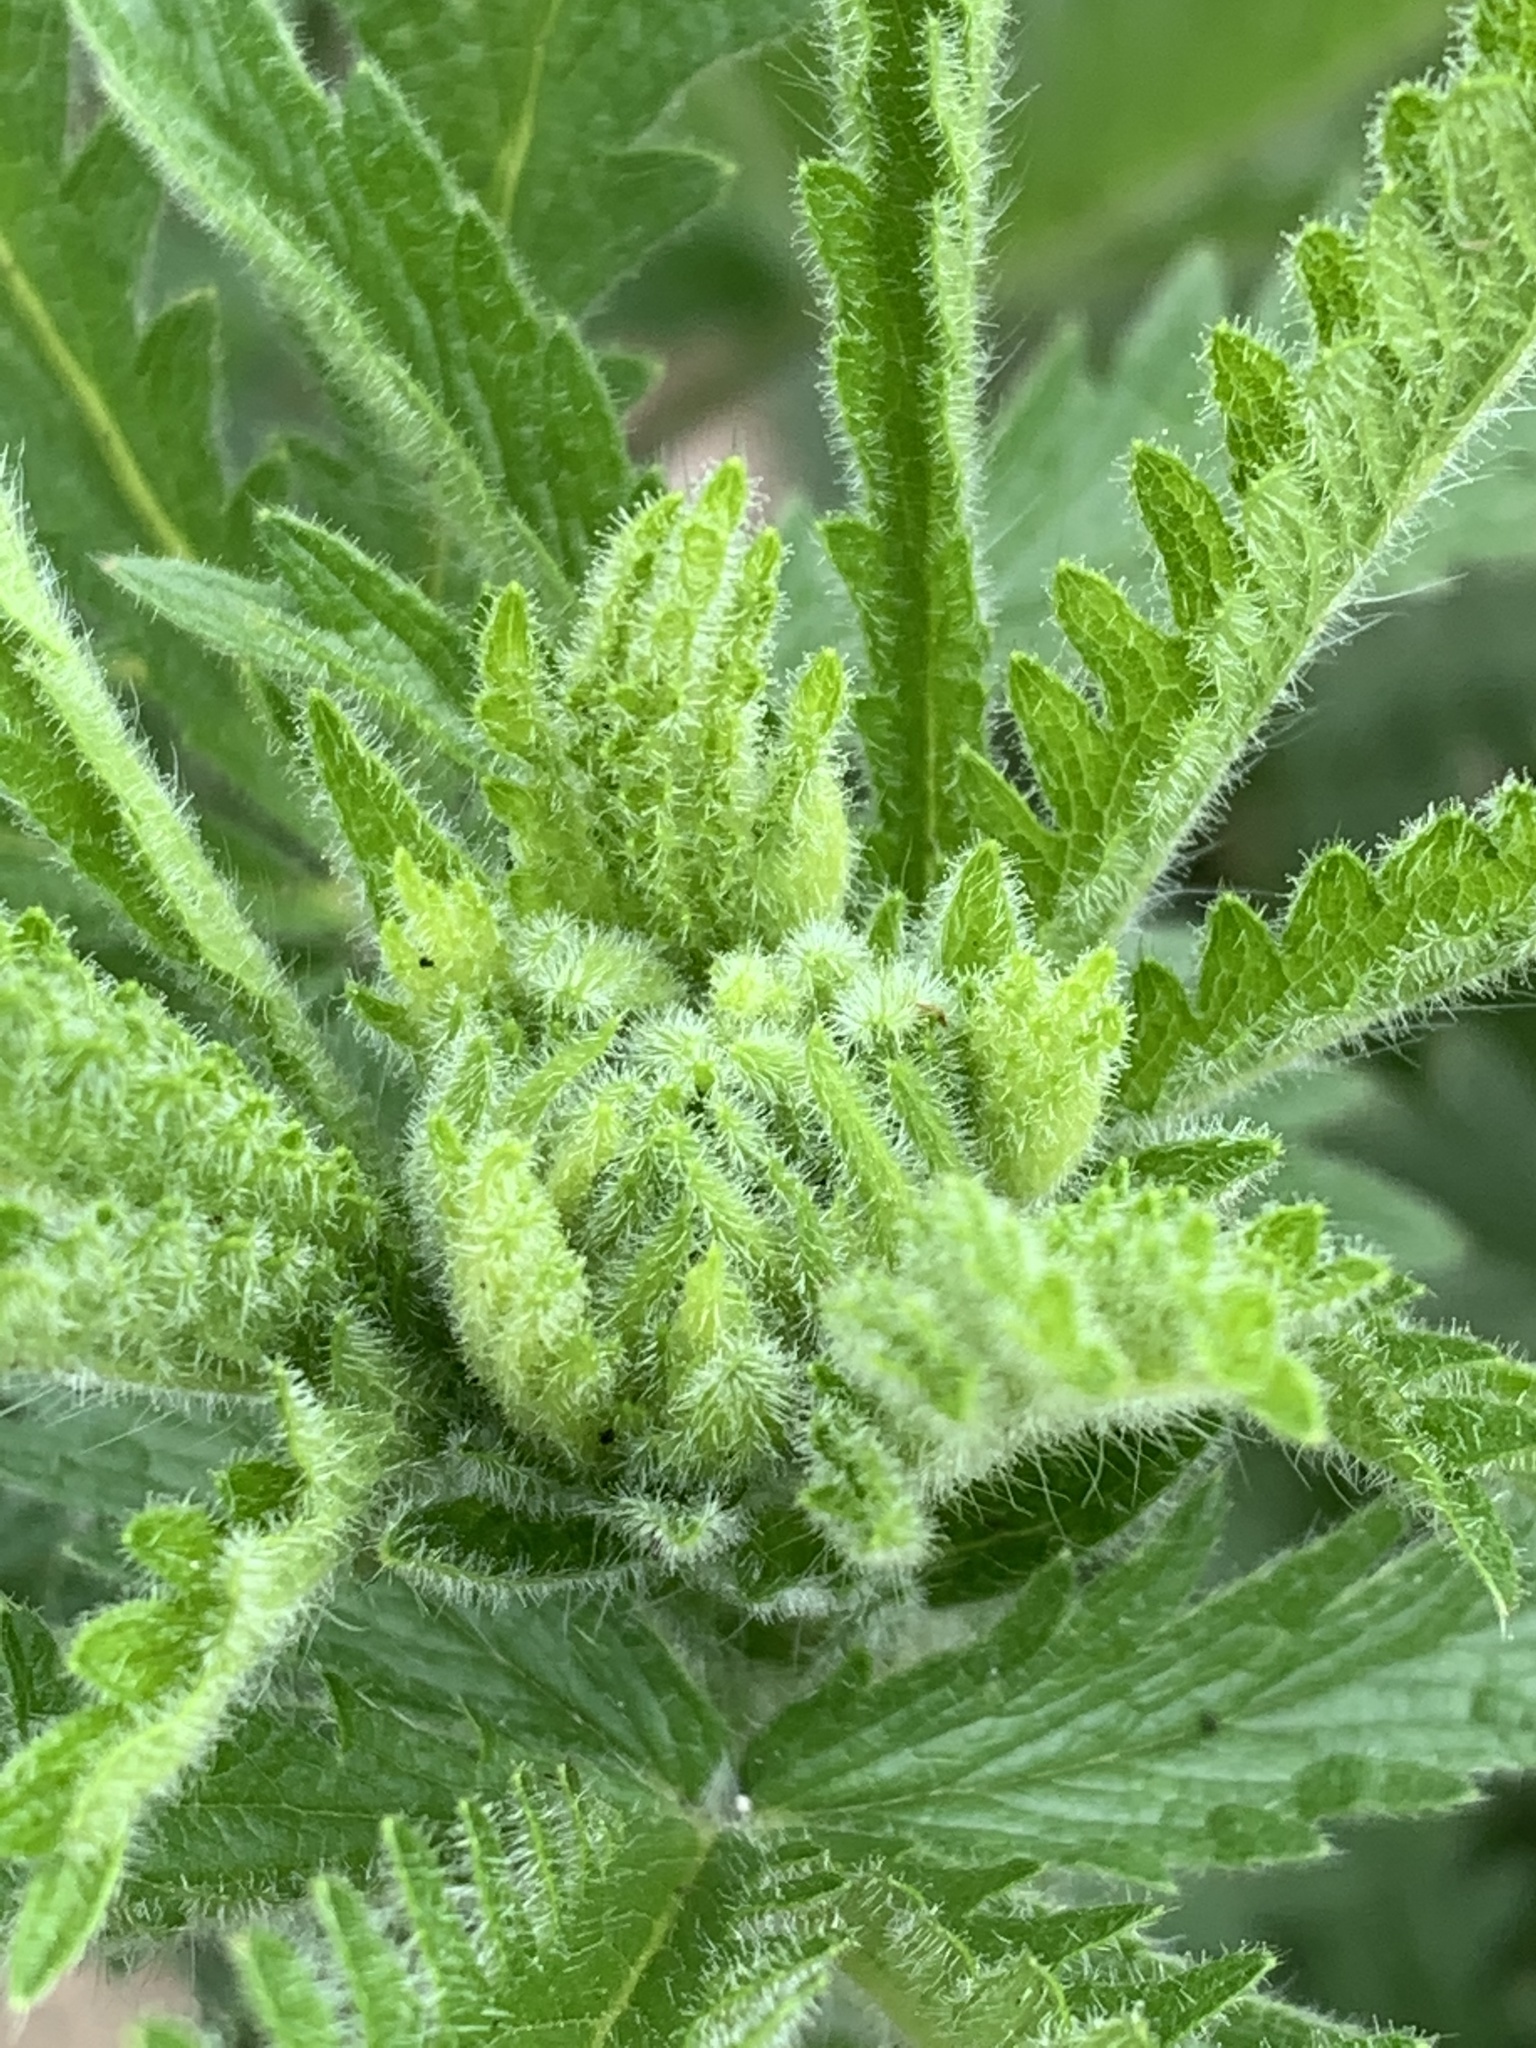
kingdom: Plantae
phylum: Tracheophyta
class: Magnoliopsida
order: Rosales
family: Rosaceae
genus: Potentilla
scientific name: Potentilla recta
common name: Sulphur cinquefoil
